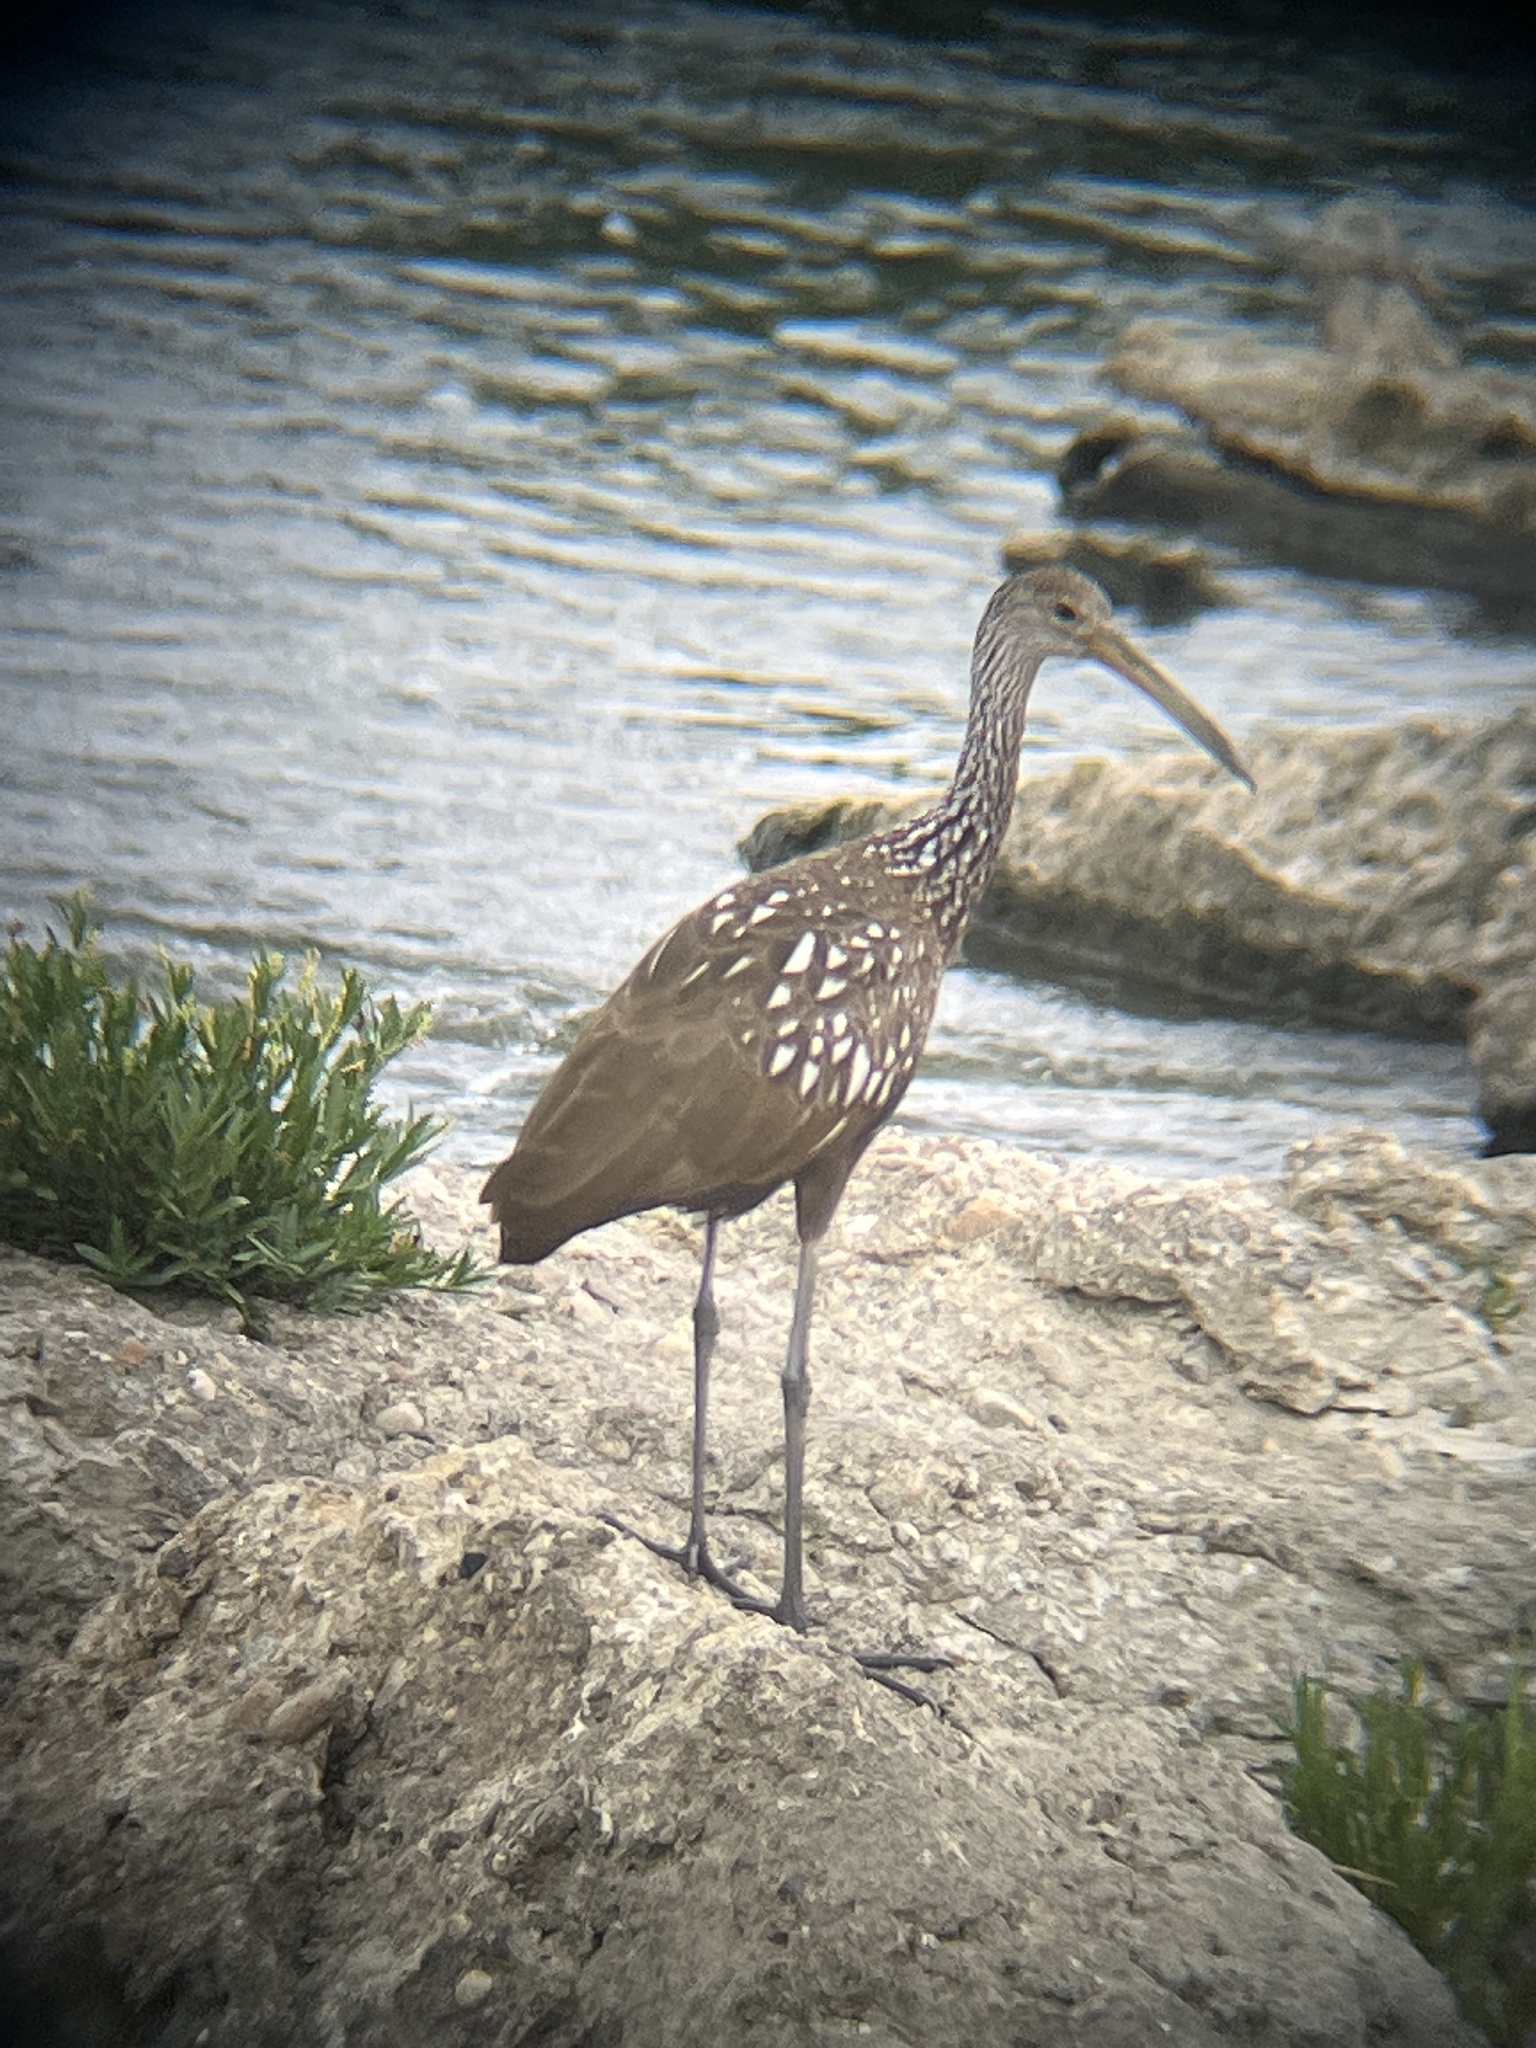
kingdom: Animalia
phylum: Chordata
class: Aves
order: Gruiformes
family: Aramidae
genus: Aramus
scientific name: Aramus guarauna
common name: Limpkin
